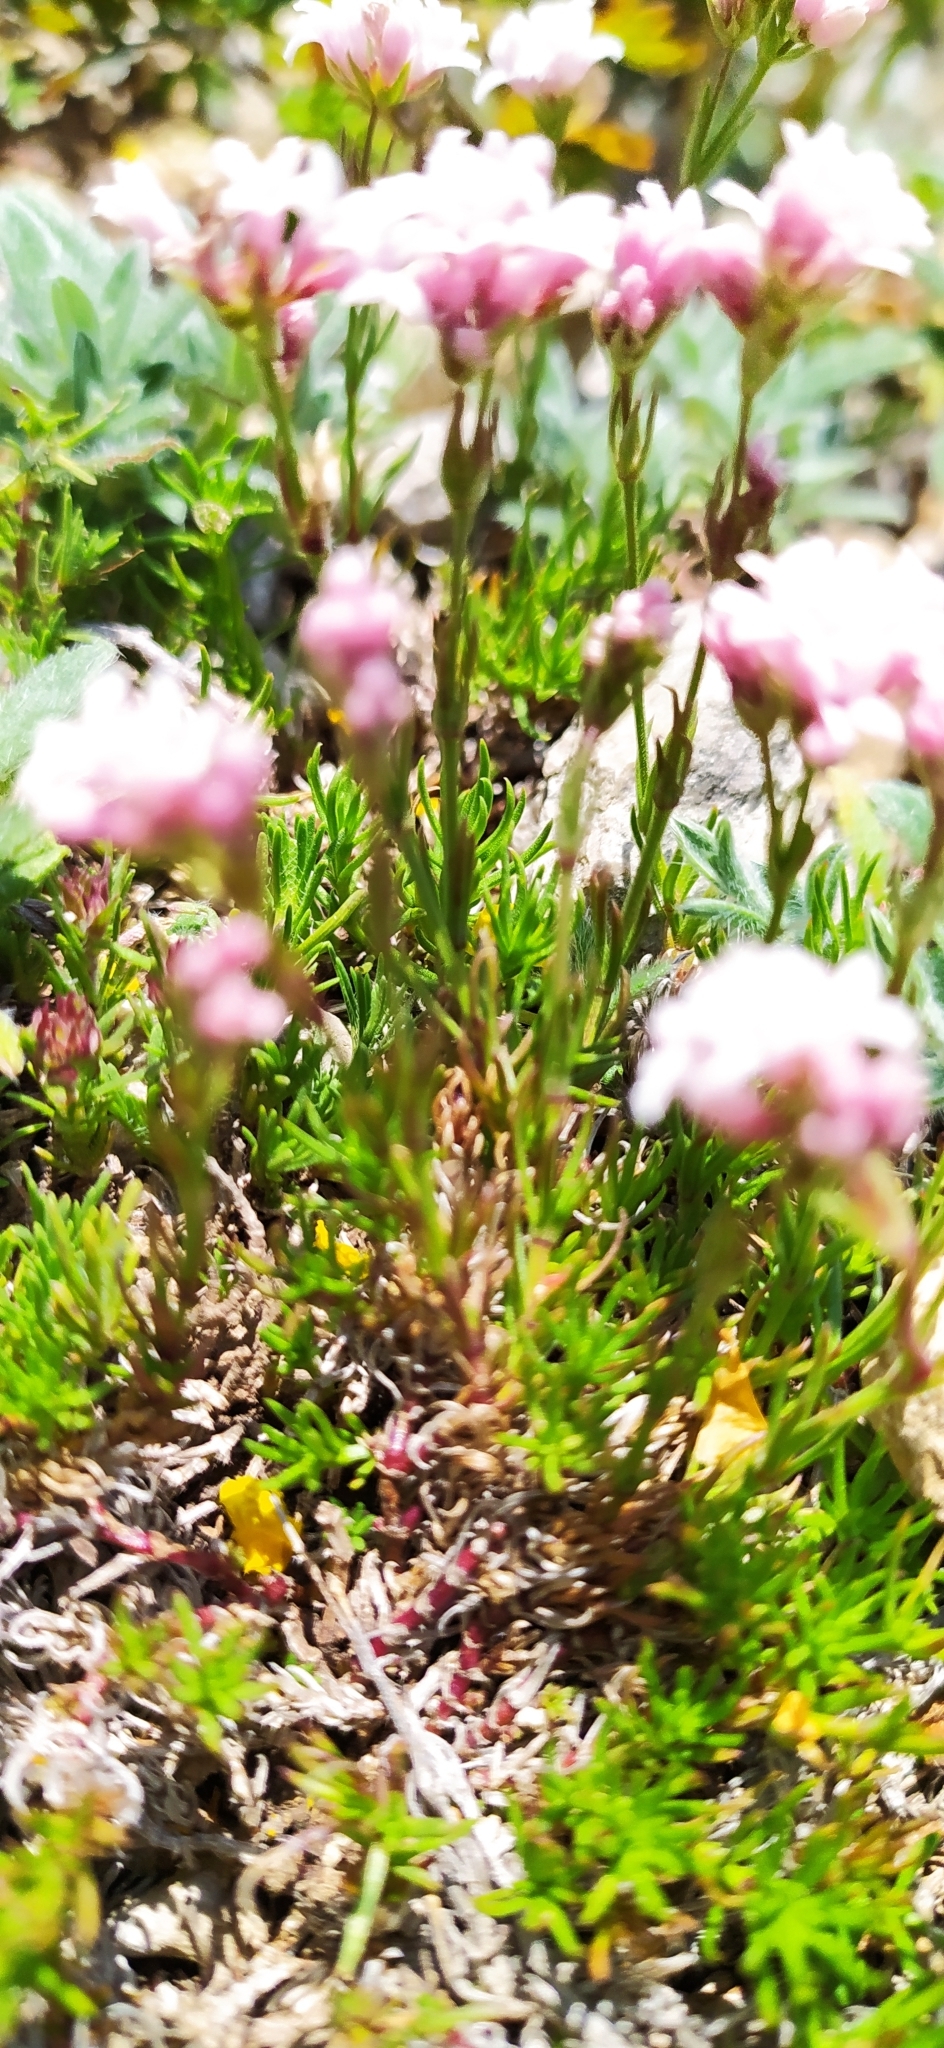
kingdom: Plantae
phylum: Tracheophyta
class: Magnoliopsida
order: Gentianales
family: Rubiaceae
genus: Cynanchica
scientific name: Cynanchica supina
